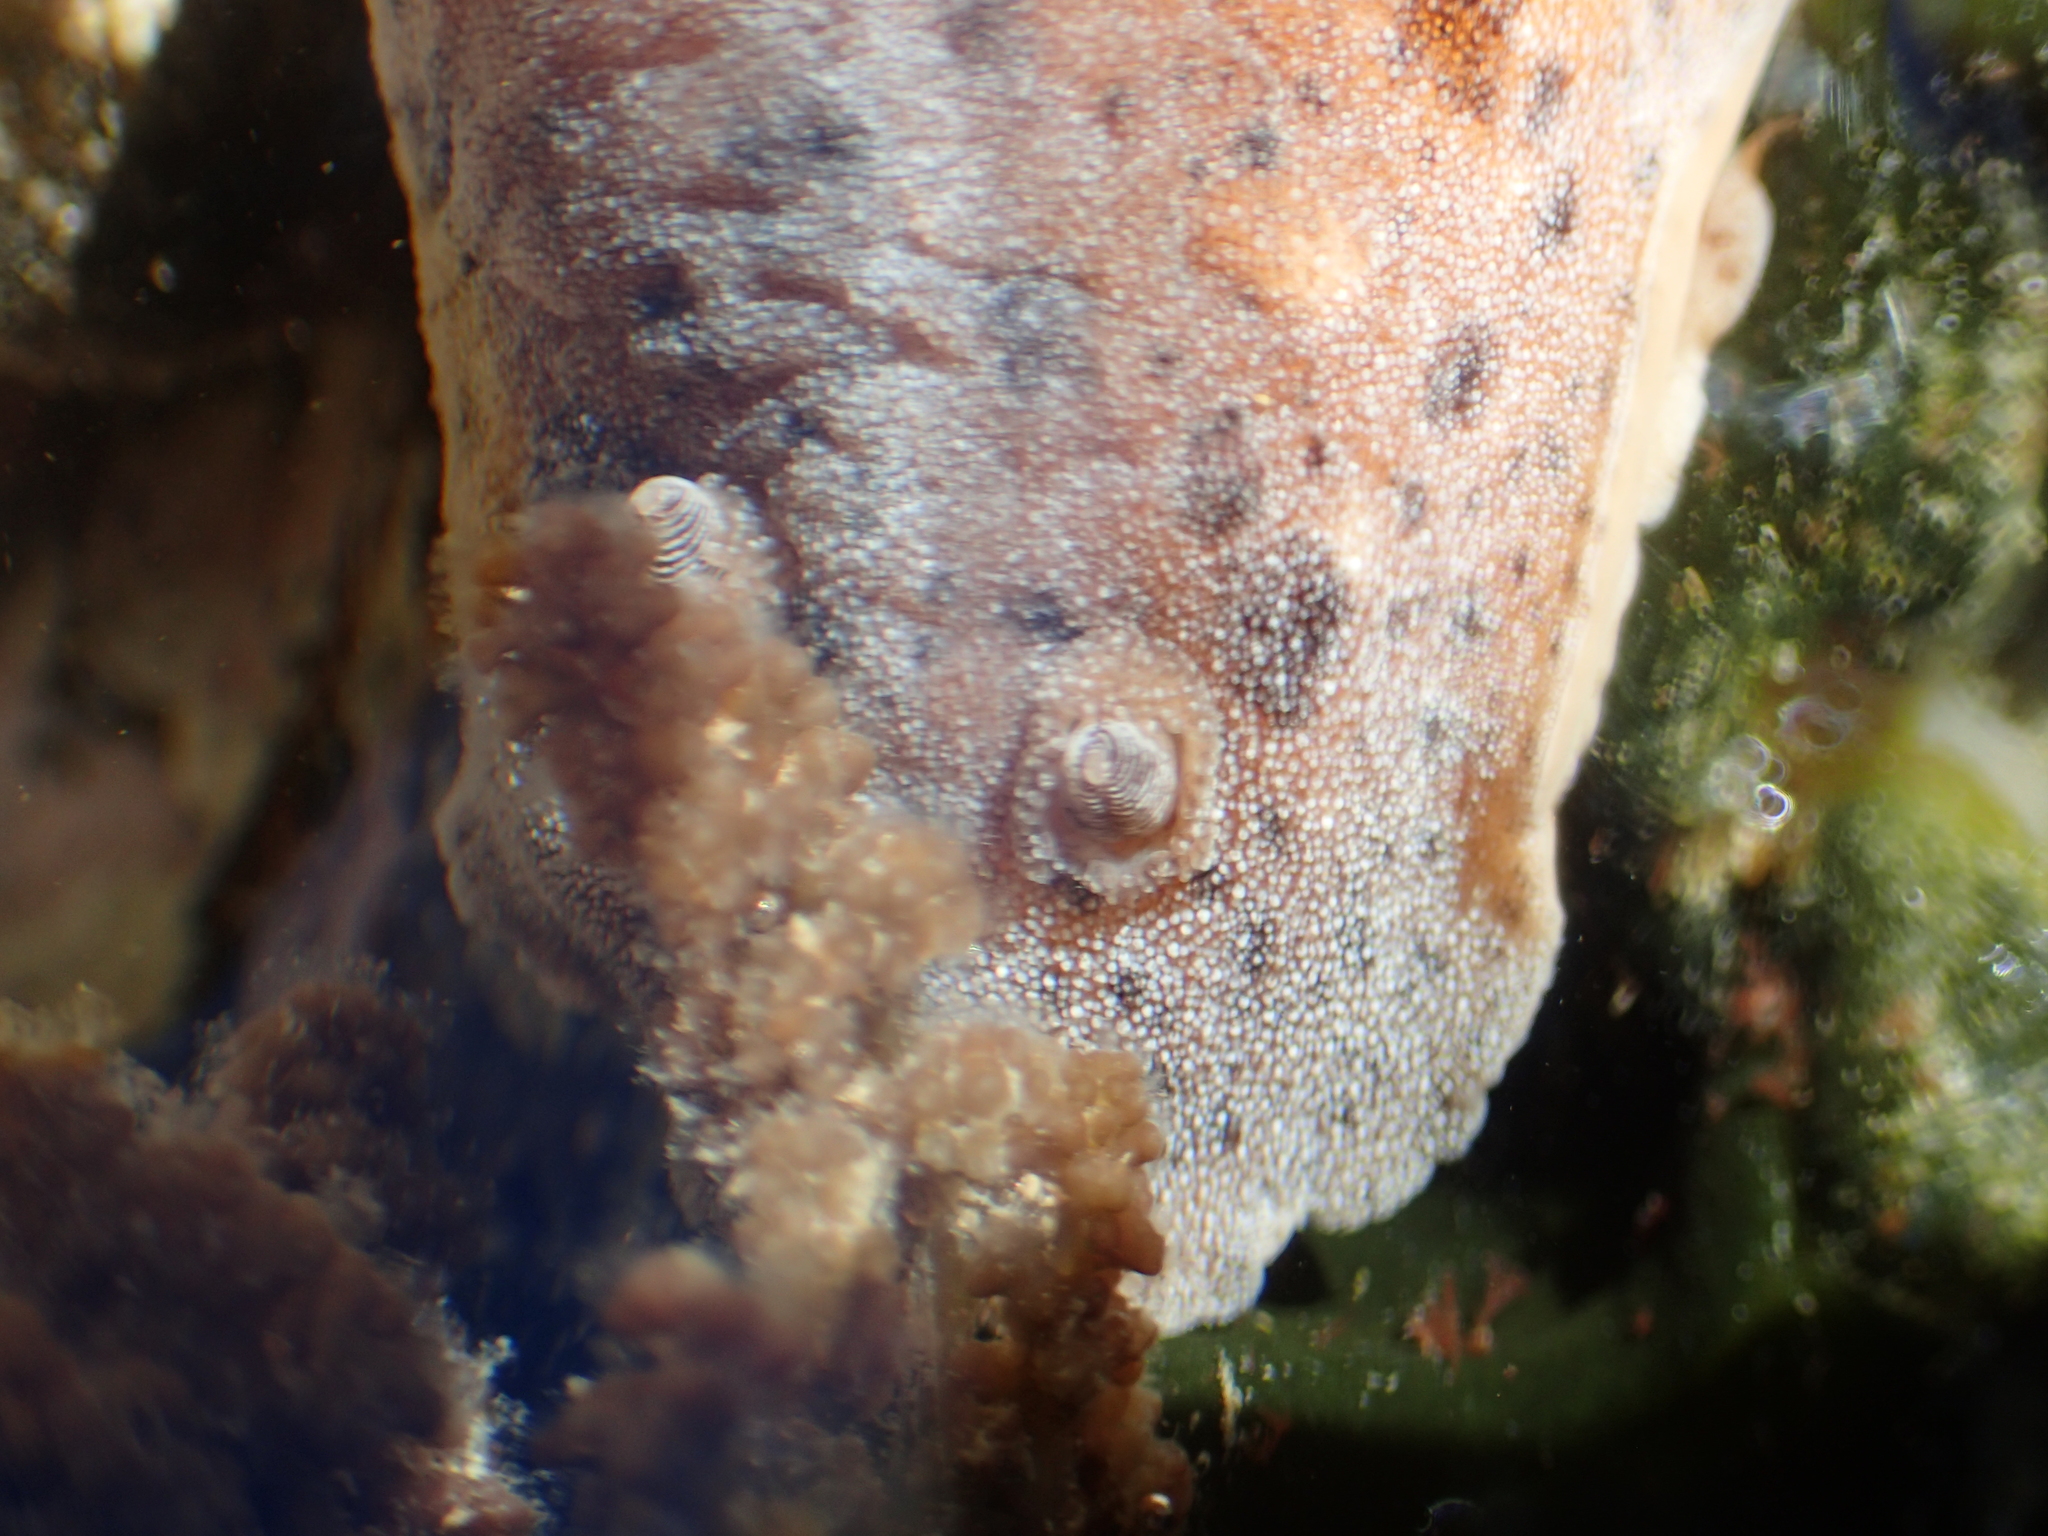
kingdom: Animalia
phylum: Mollusca
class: Gastropoda
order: Nudibranchia
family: Discodorididae
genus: Alloiodoris
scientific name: Alloiodoris lanuginata
